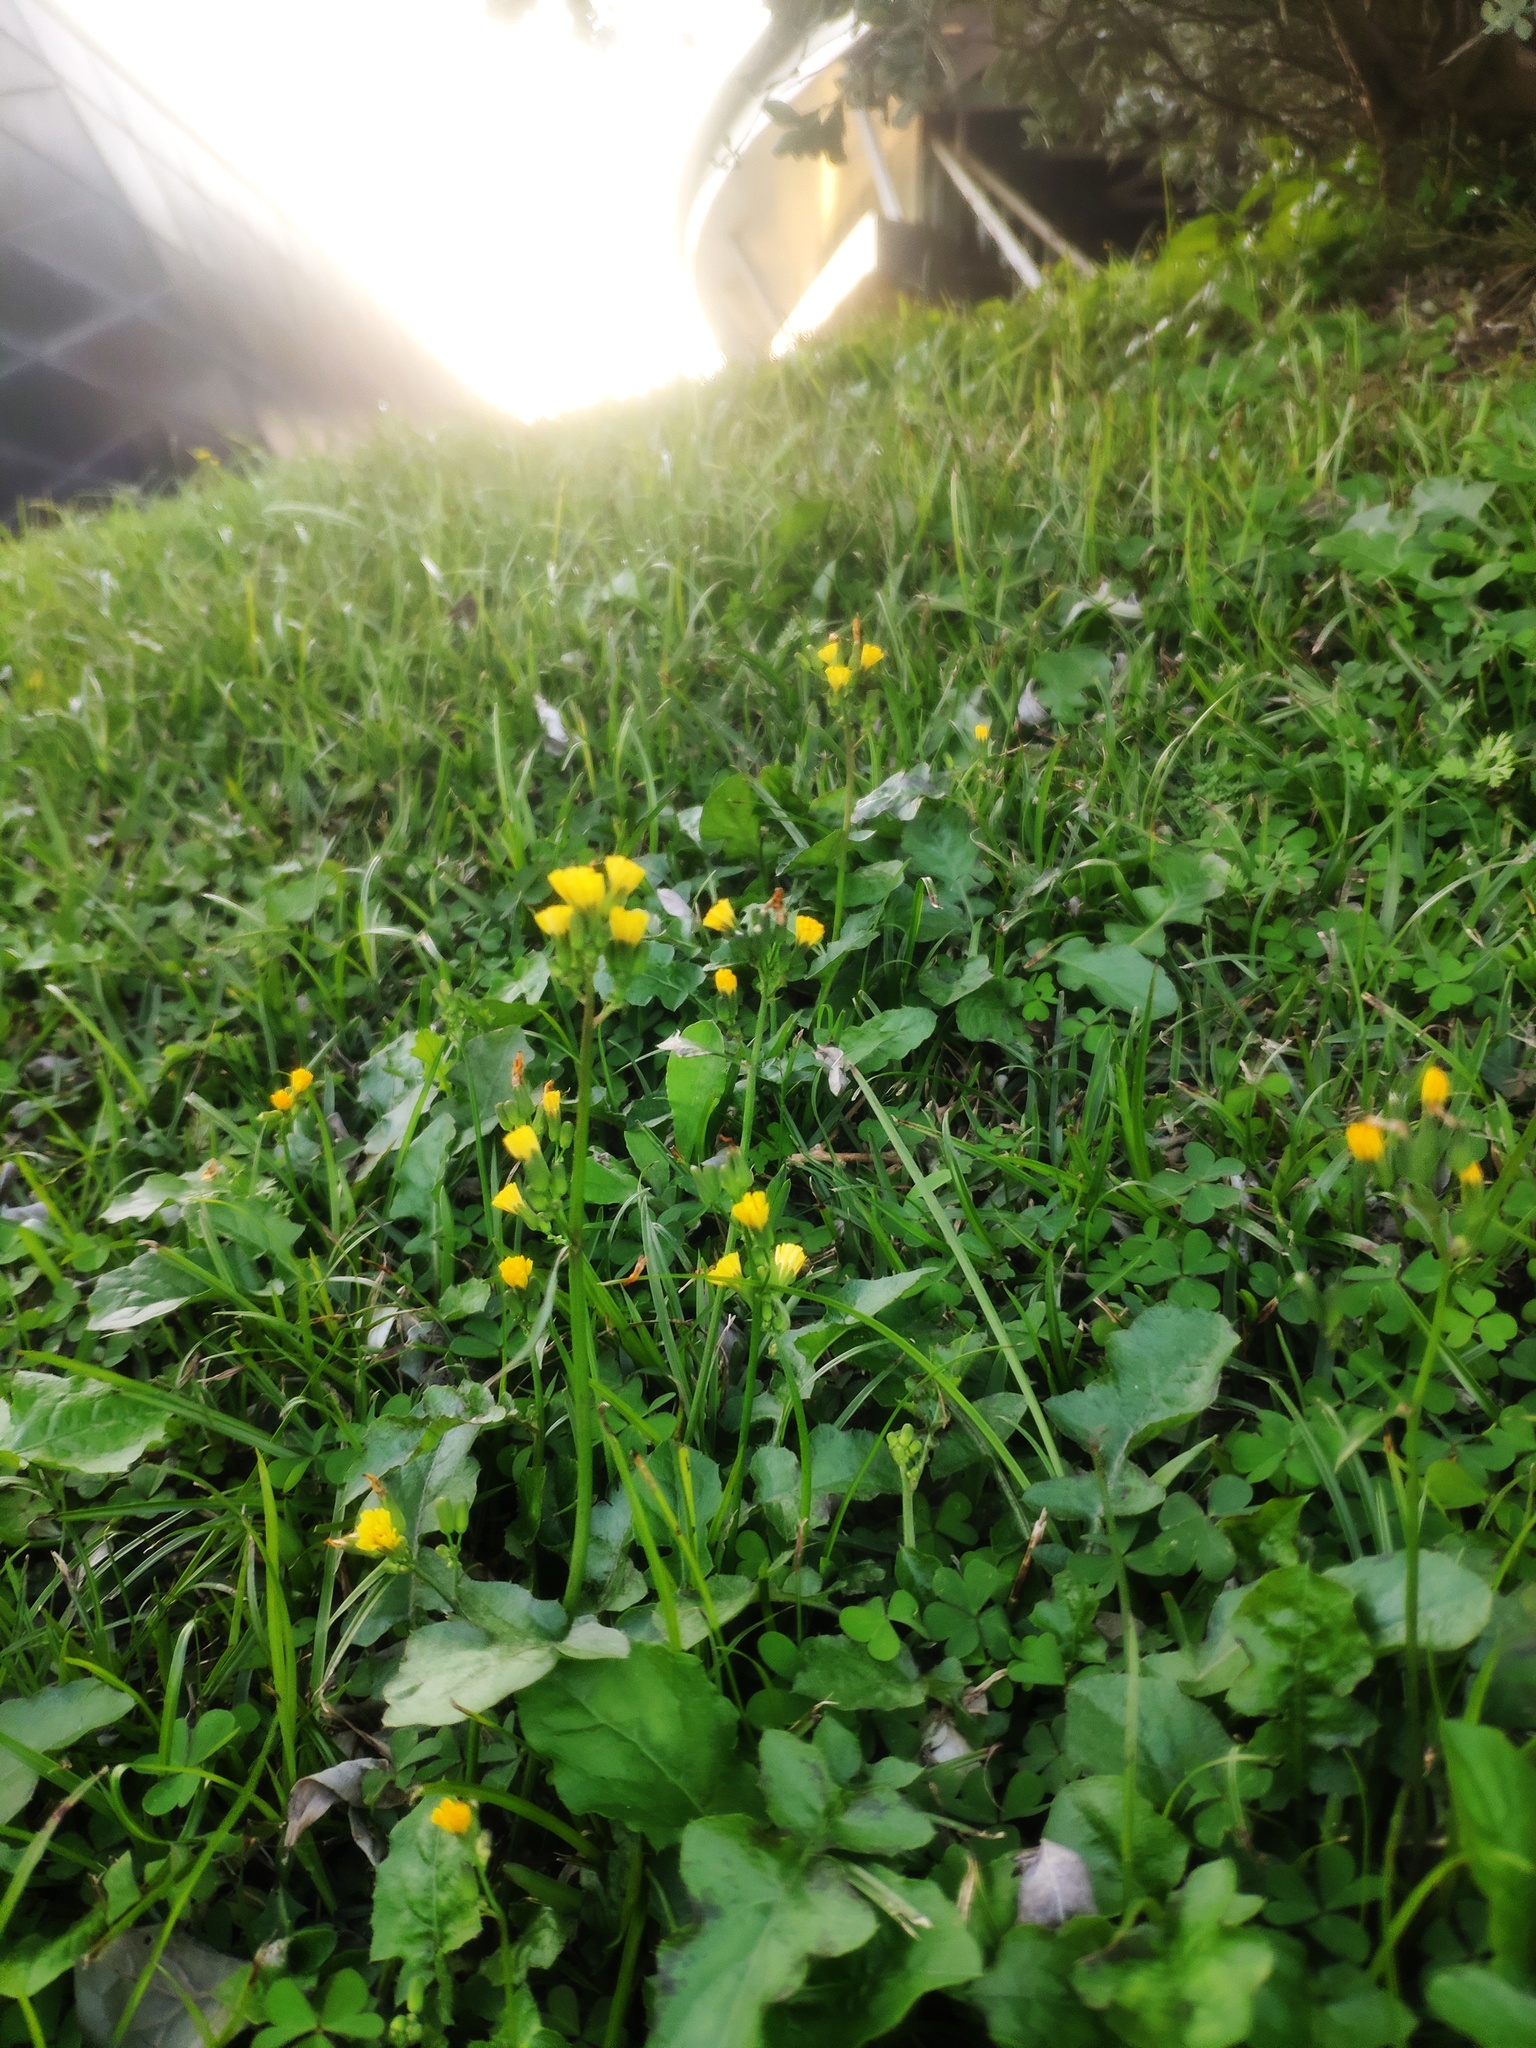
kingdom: Plantae
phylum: Tracheophyta
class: Magnoliopsida
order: Asterales
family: Asteraceae
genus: Youngia
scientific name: Youngia japonica
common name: Oriental false hawksbeard
